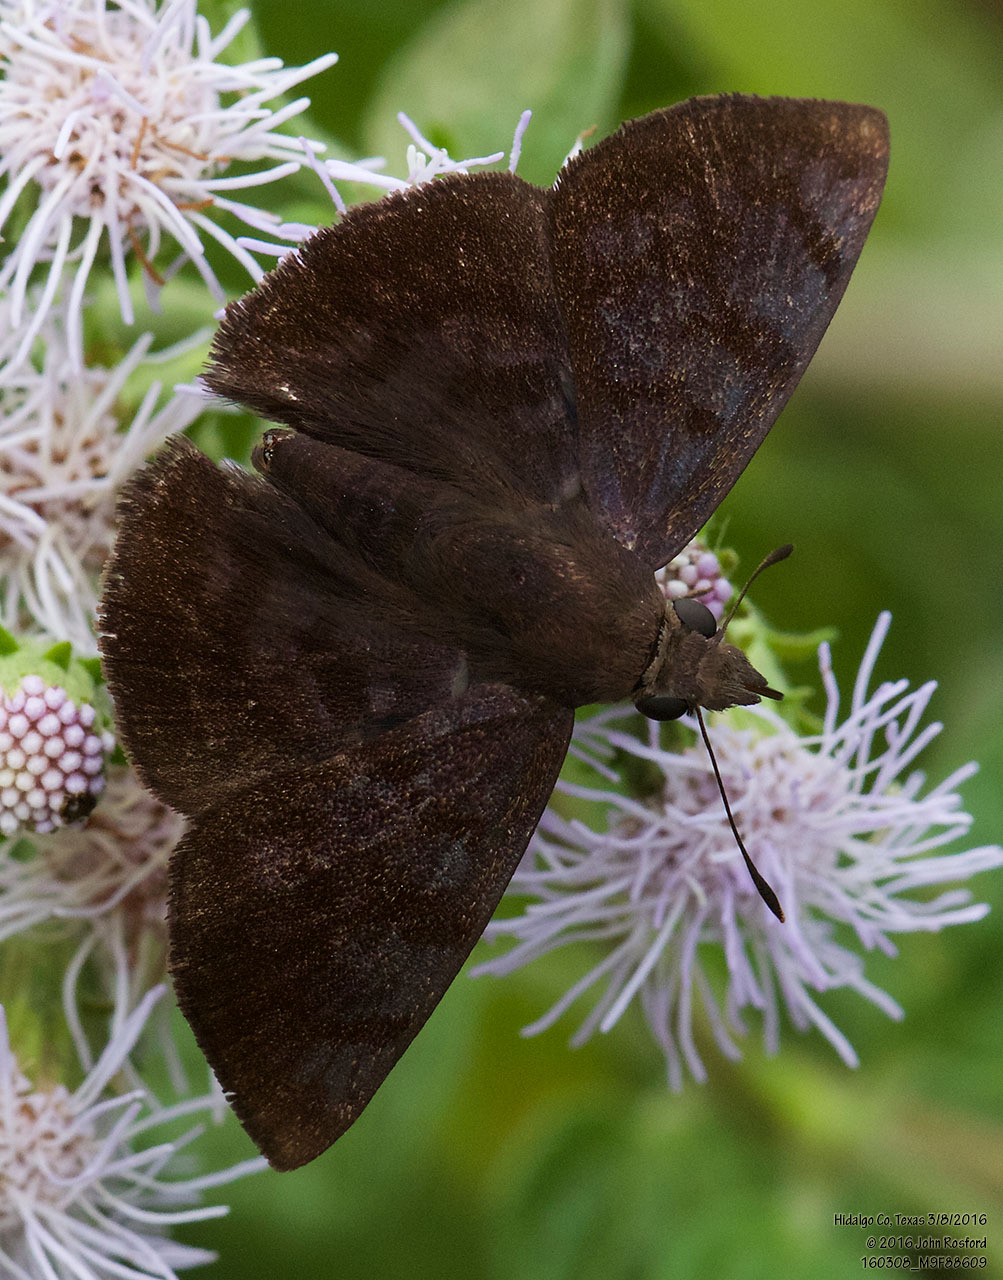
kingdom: Animalia
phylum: Arthropoda
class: Insecta
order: Lepidoptera
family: Hesperiidae
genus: Pellicia
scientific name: Pellicia costimacula
